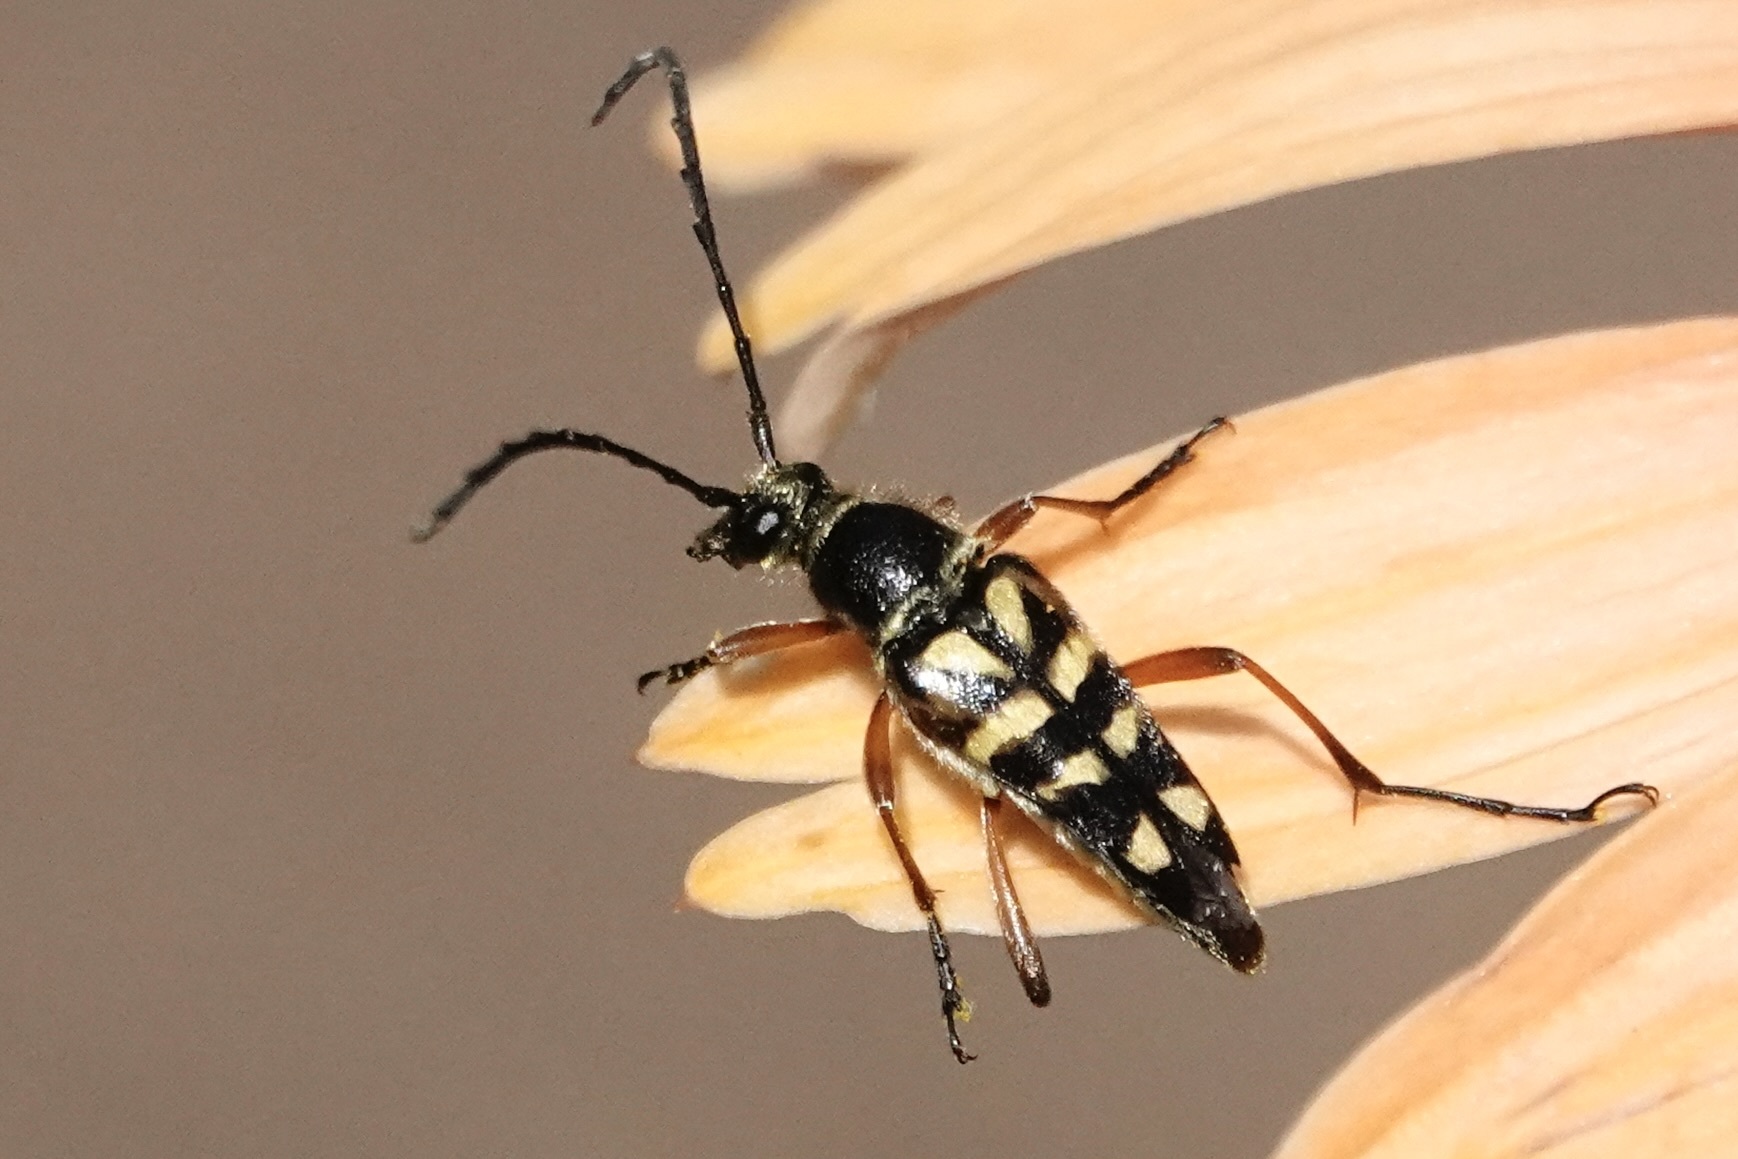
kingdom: Animalia
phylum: Arthropoda
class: Insecta
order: Coleoptera
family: Cerambycidae
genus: Typocerus
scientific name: Typocerus zebra
